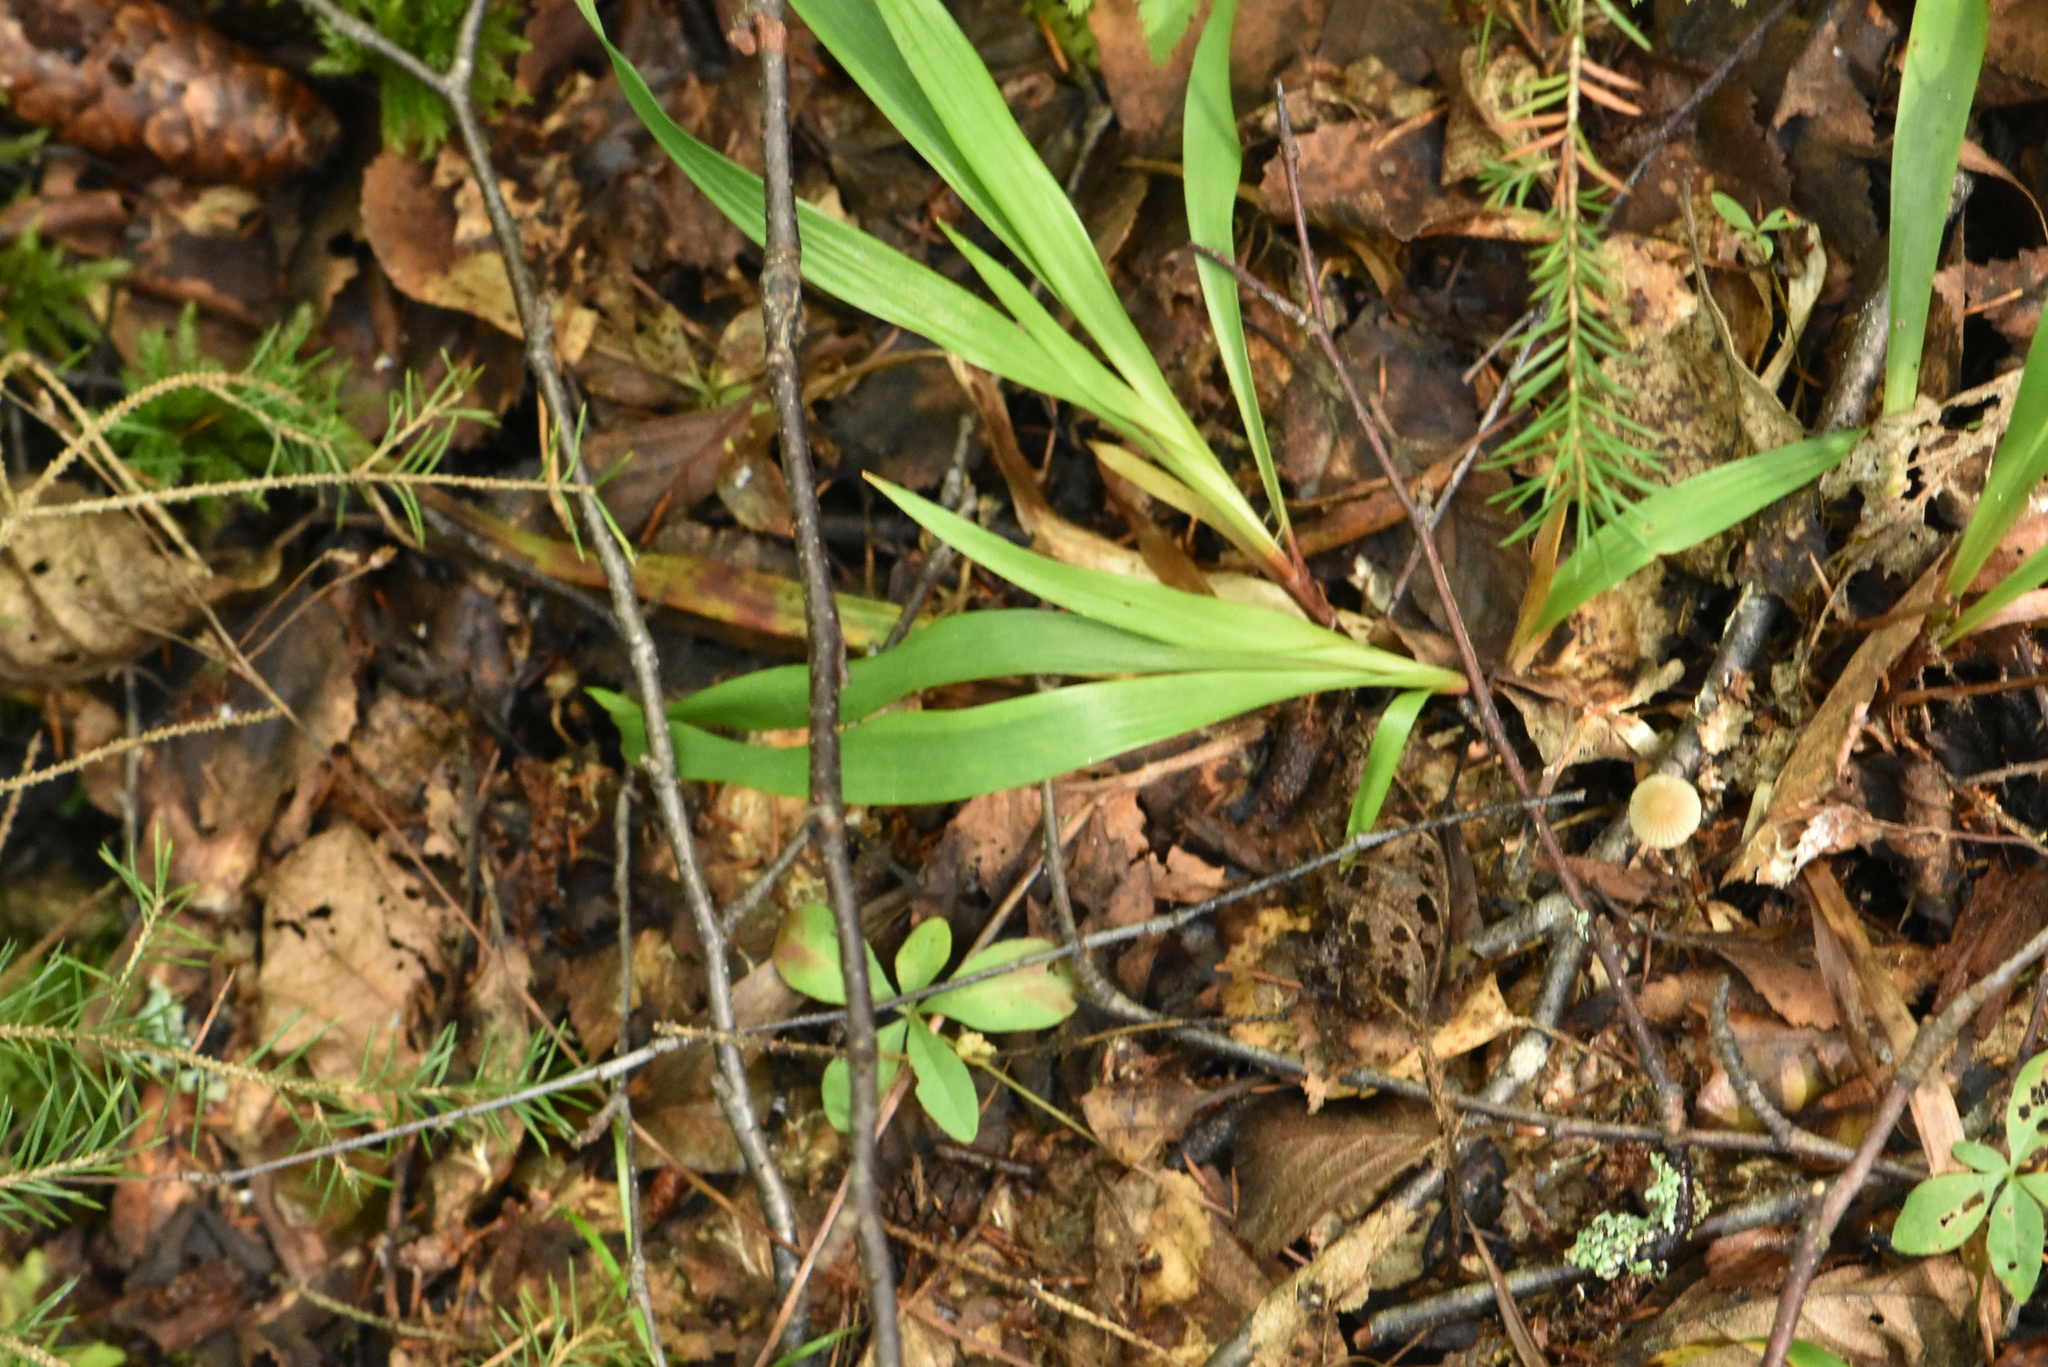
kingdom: Plantae
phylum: Tracheophyta
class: Liliopsida
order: Poales
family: Juncaceae
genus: Luzula
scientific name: Luzula pilosa
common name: Hairy wood-rush
